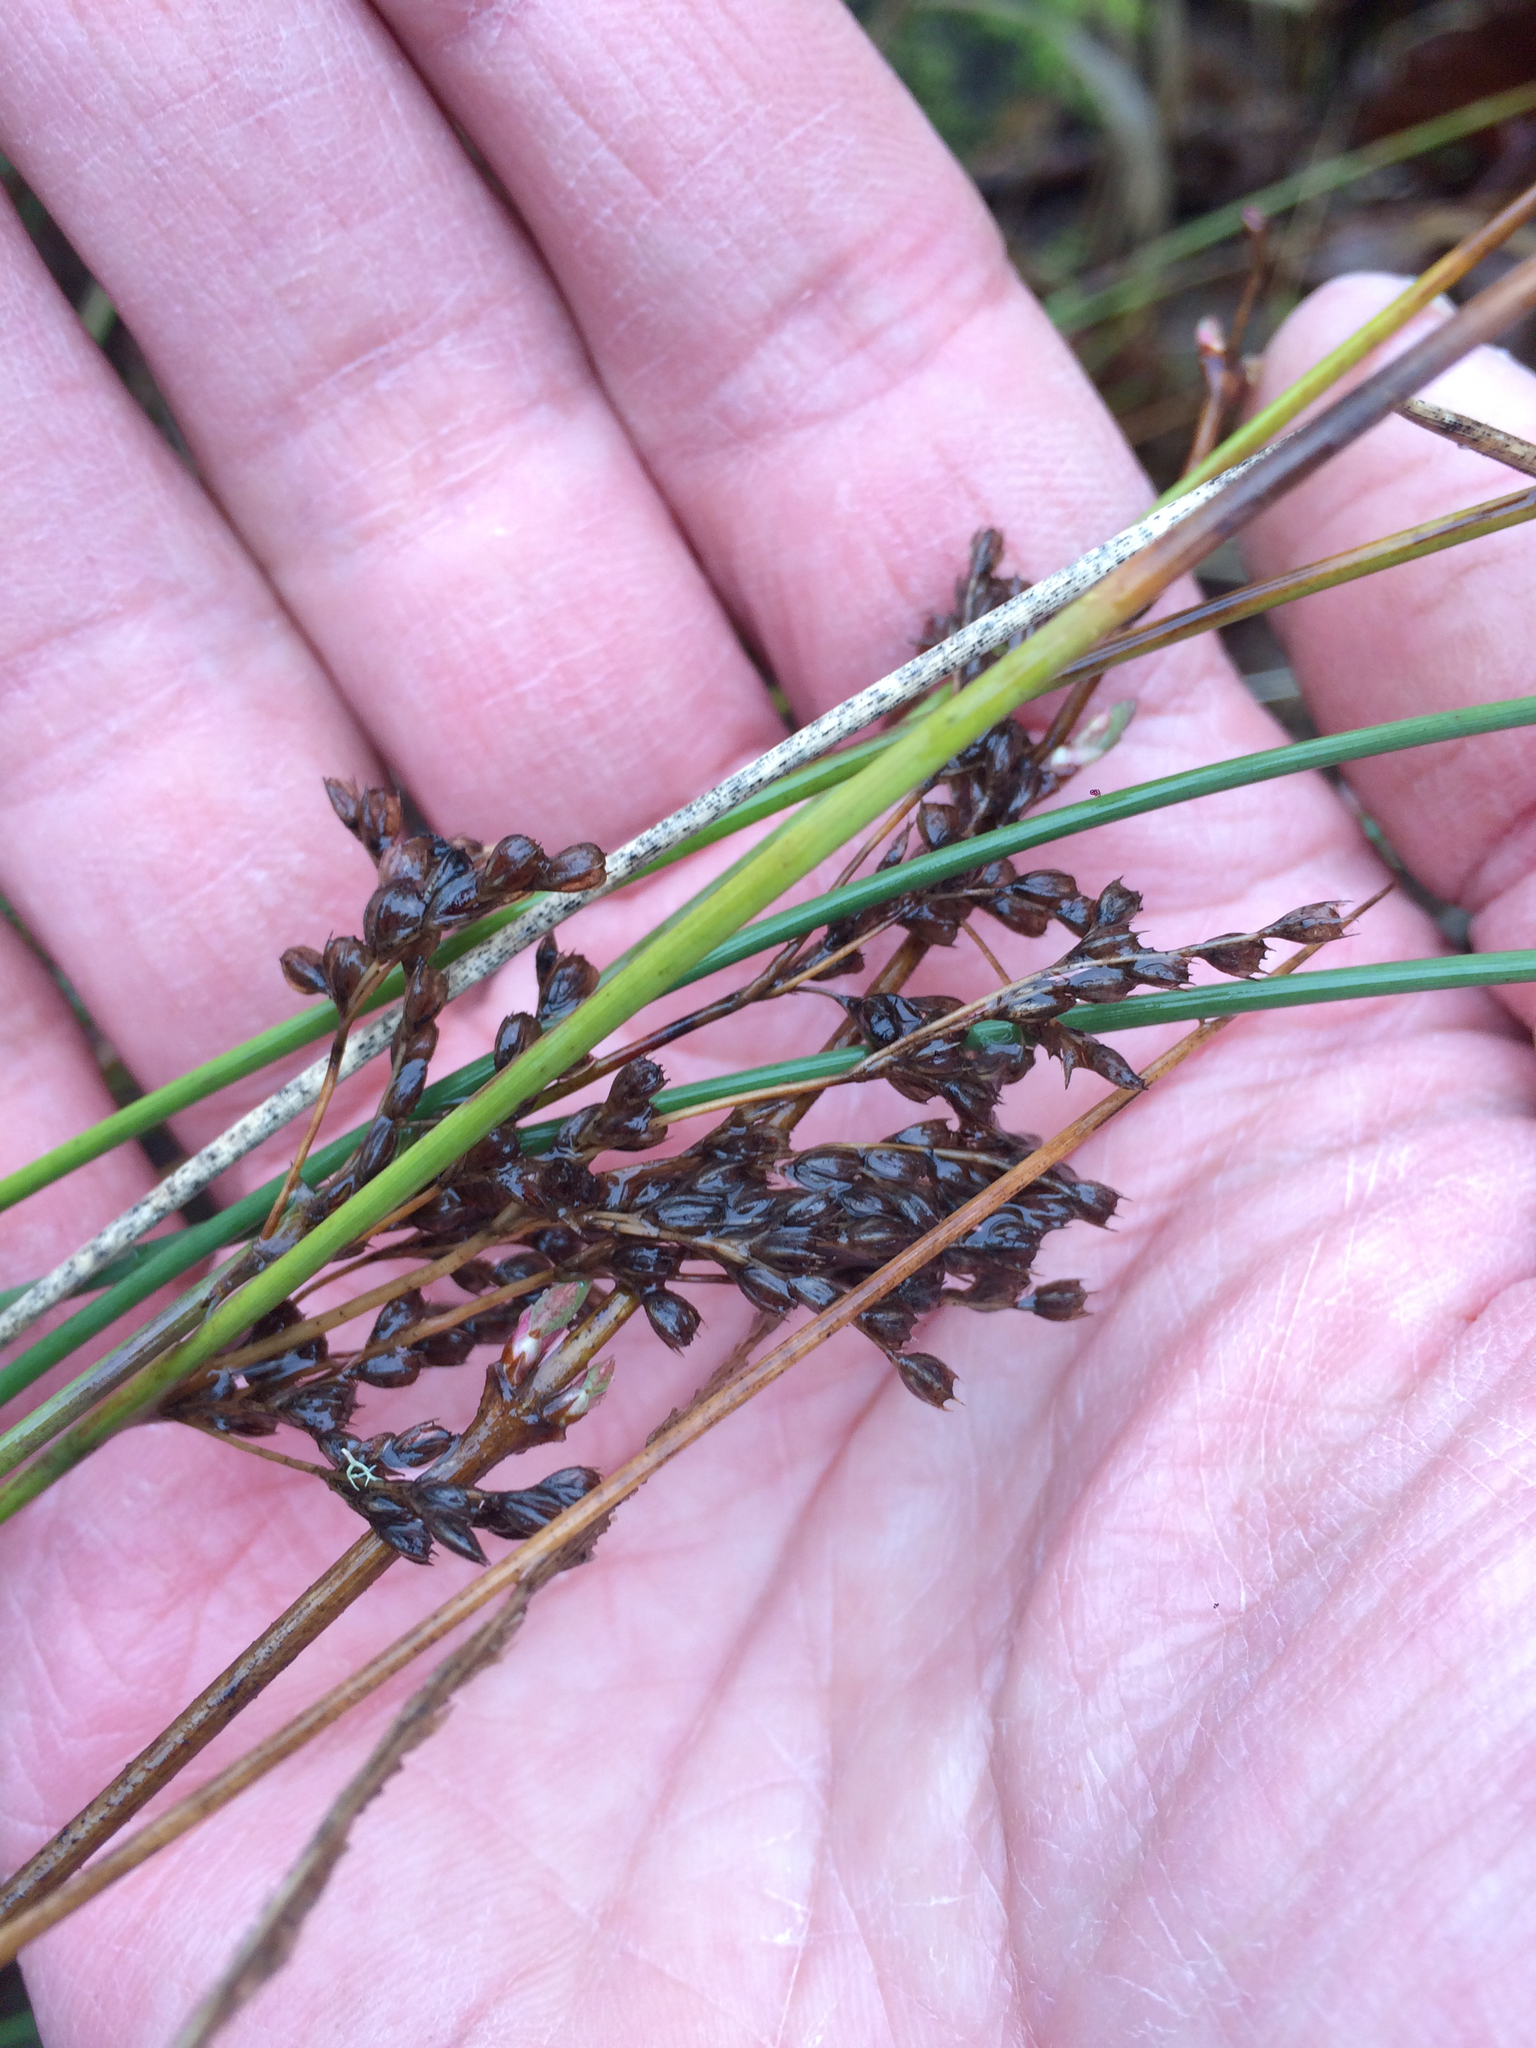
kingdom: Plantae
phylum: Tracheophyta
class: Liliopsida
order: Poales
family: Juncaceae
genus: Juncus
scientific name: Juncus effusus
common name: Soft rush
